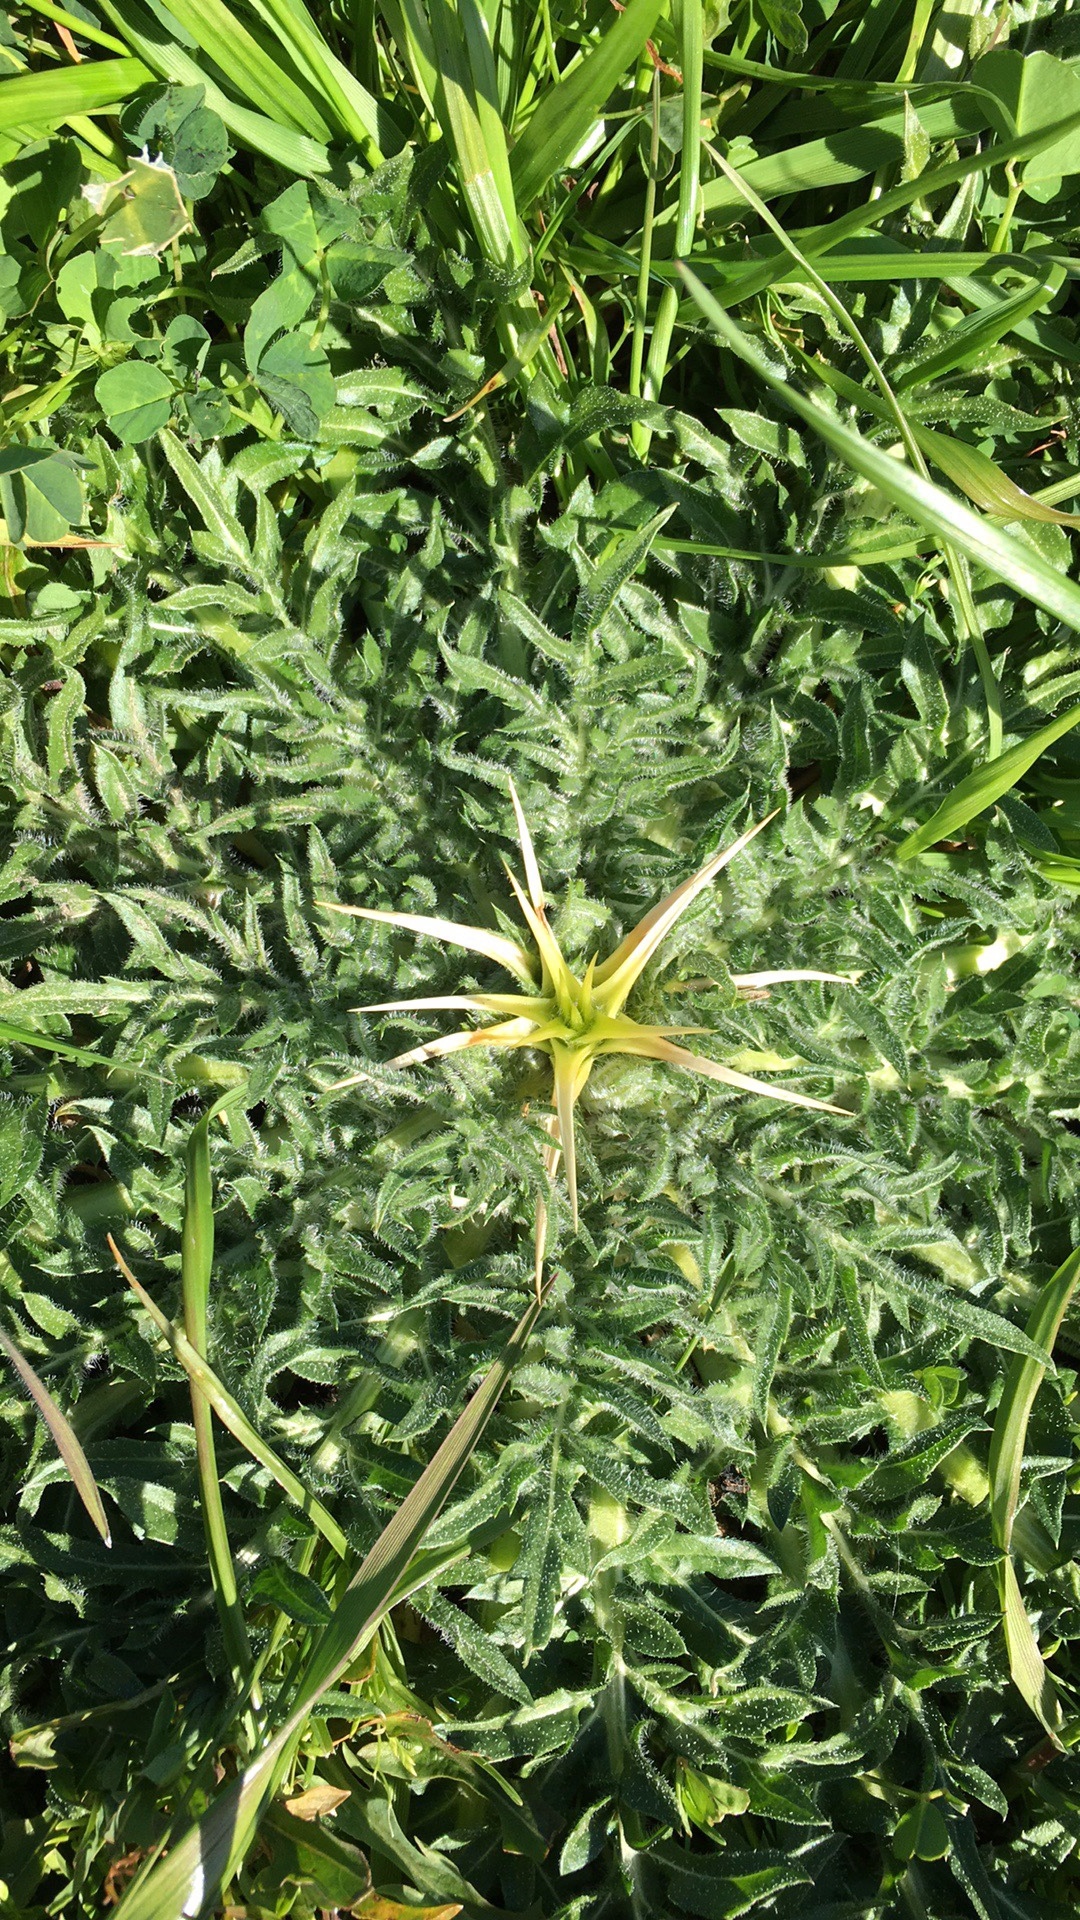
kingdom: Plantae
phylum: Tracheophyta
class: Magnoliopsida
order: Asterales
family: Asteraceae
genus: Centaurea
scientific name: Centaurea calcitrapa
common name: Red star-thistle
